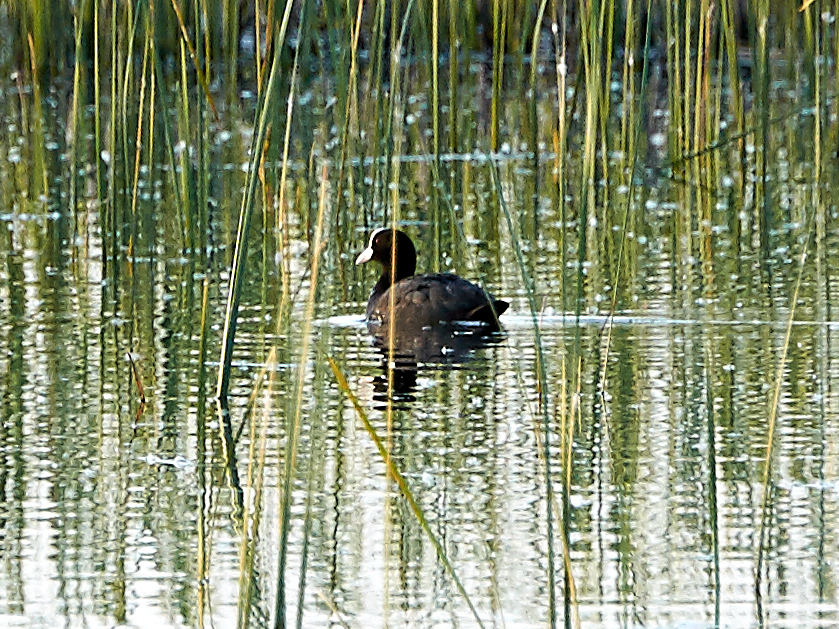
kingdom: Animalia
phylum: Chordata
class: Aves
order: Gruiformes
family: Rallidae
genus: Fulica
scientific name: Fulica atra
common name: Eurasian coot
